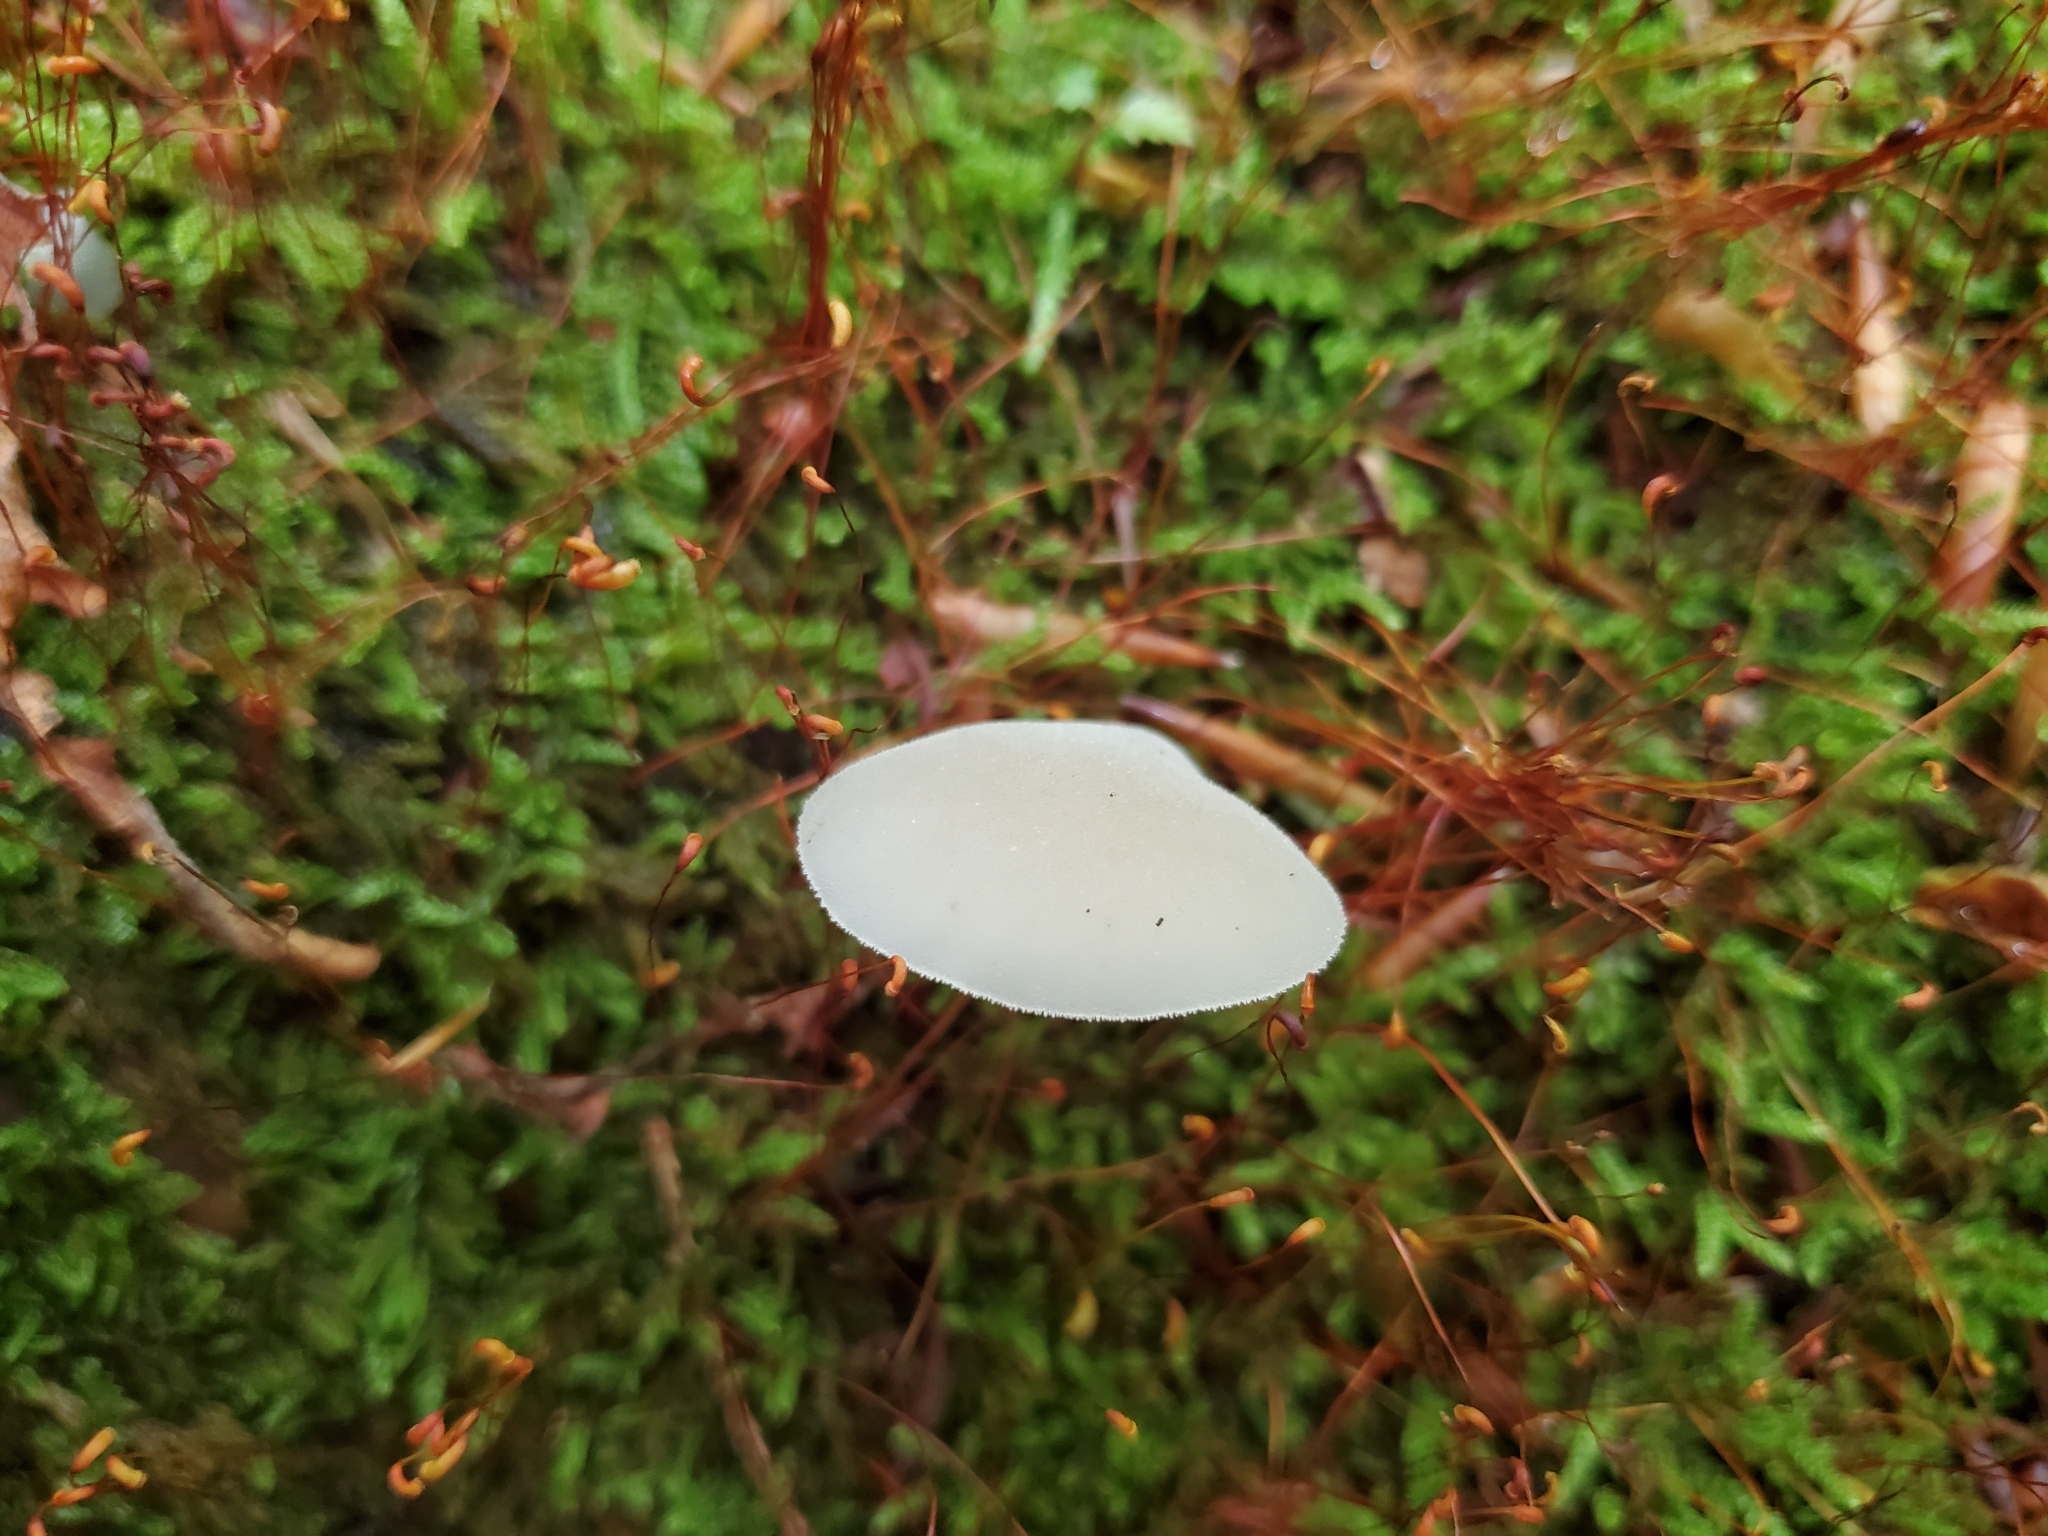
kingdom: Fungi
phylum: Basidiomycota
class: Agaricomycetes
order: Auriculariales
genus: Pseudohydnum
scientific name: Pseudohydnum gelatinosum
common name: Jelly tongue
